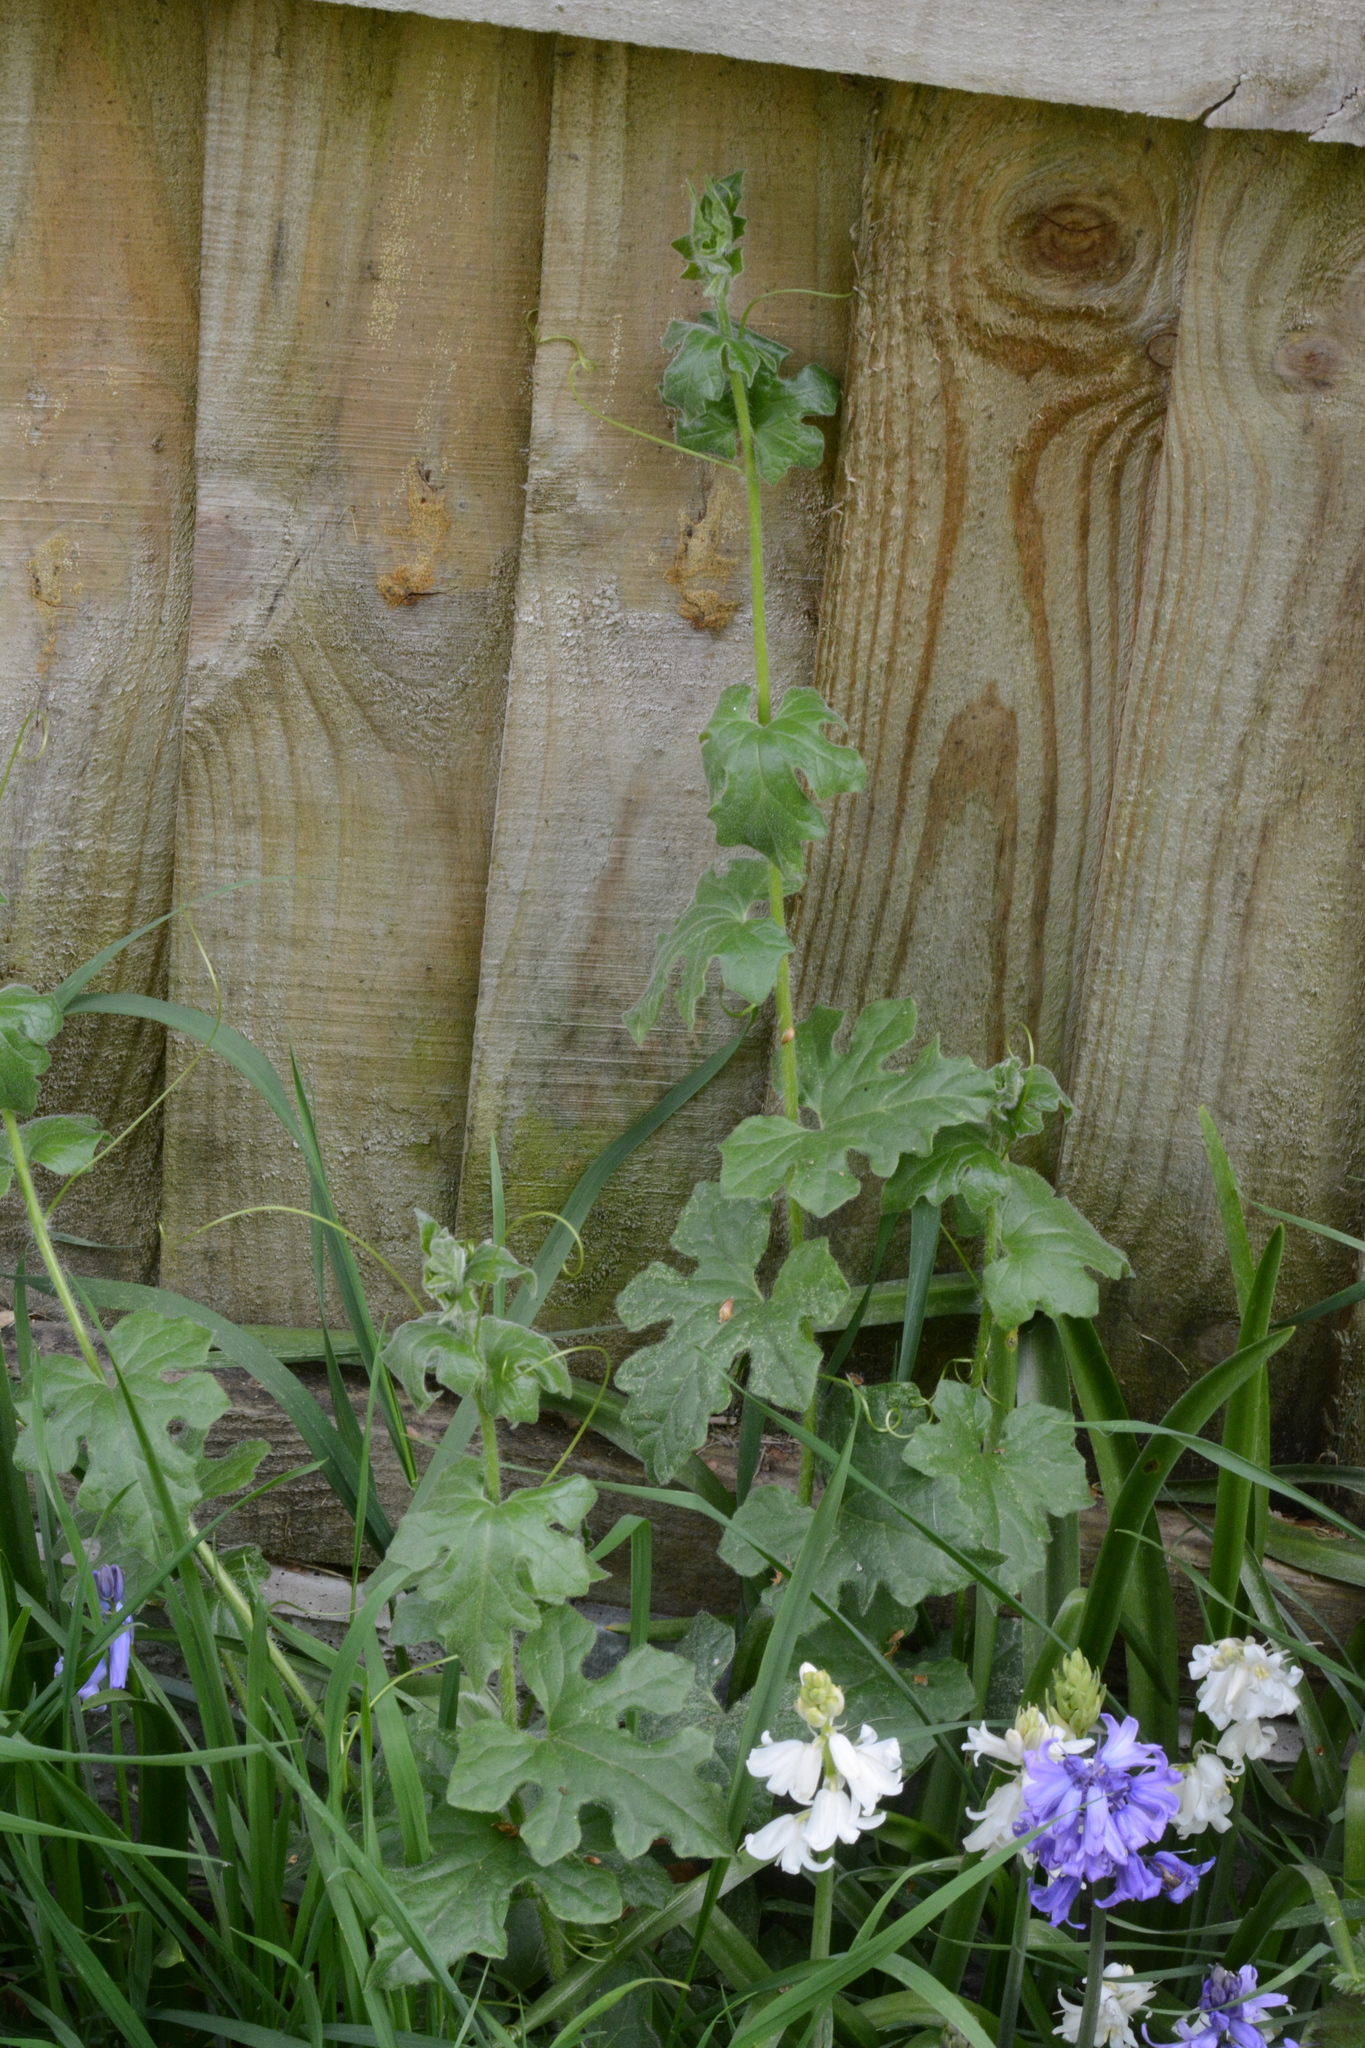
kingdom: Plantae
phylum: Tracheophyta
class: Magnoliopsida
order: Cucurbitales
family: Cucurbitaceae
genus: Bryonia
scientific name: Bryonia cretica
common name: Cretan bryony
